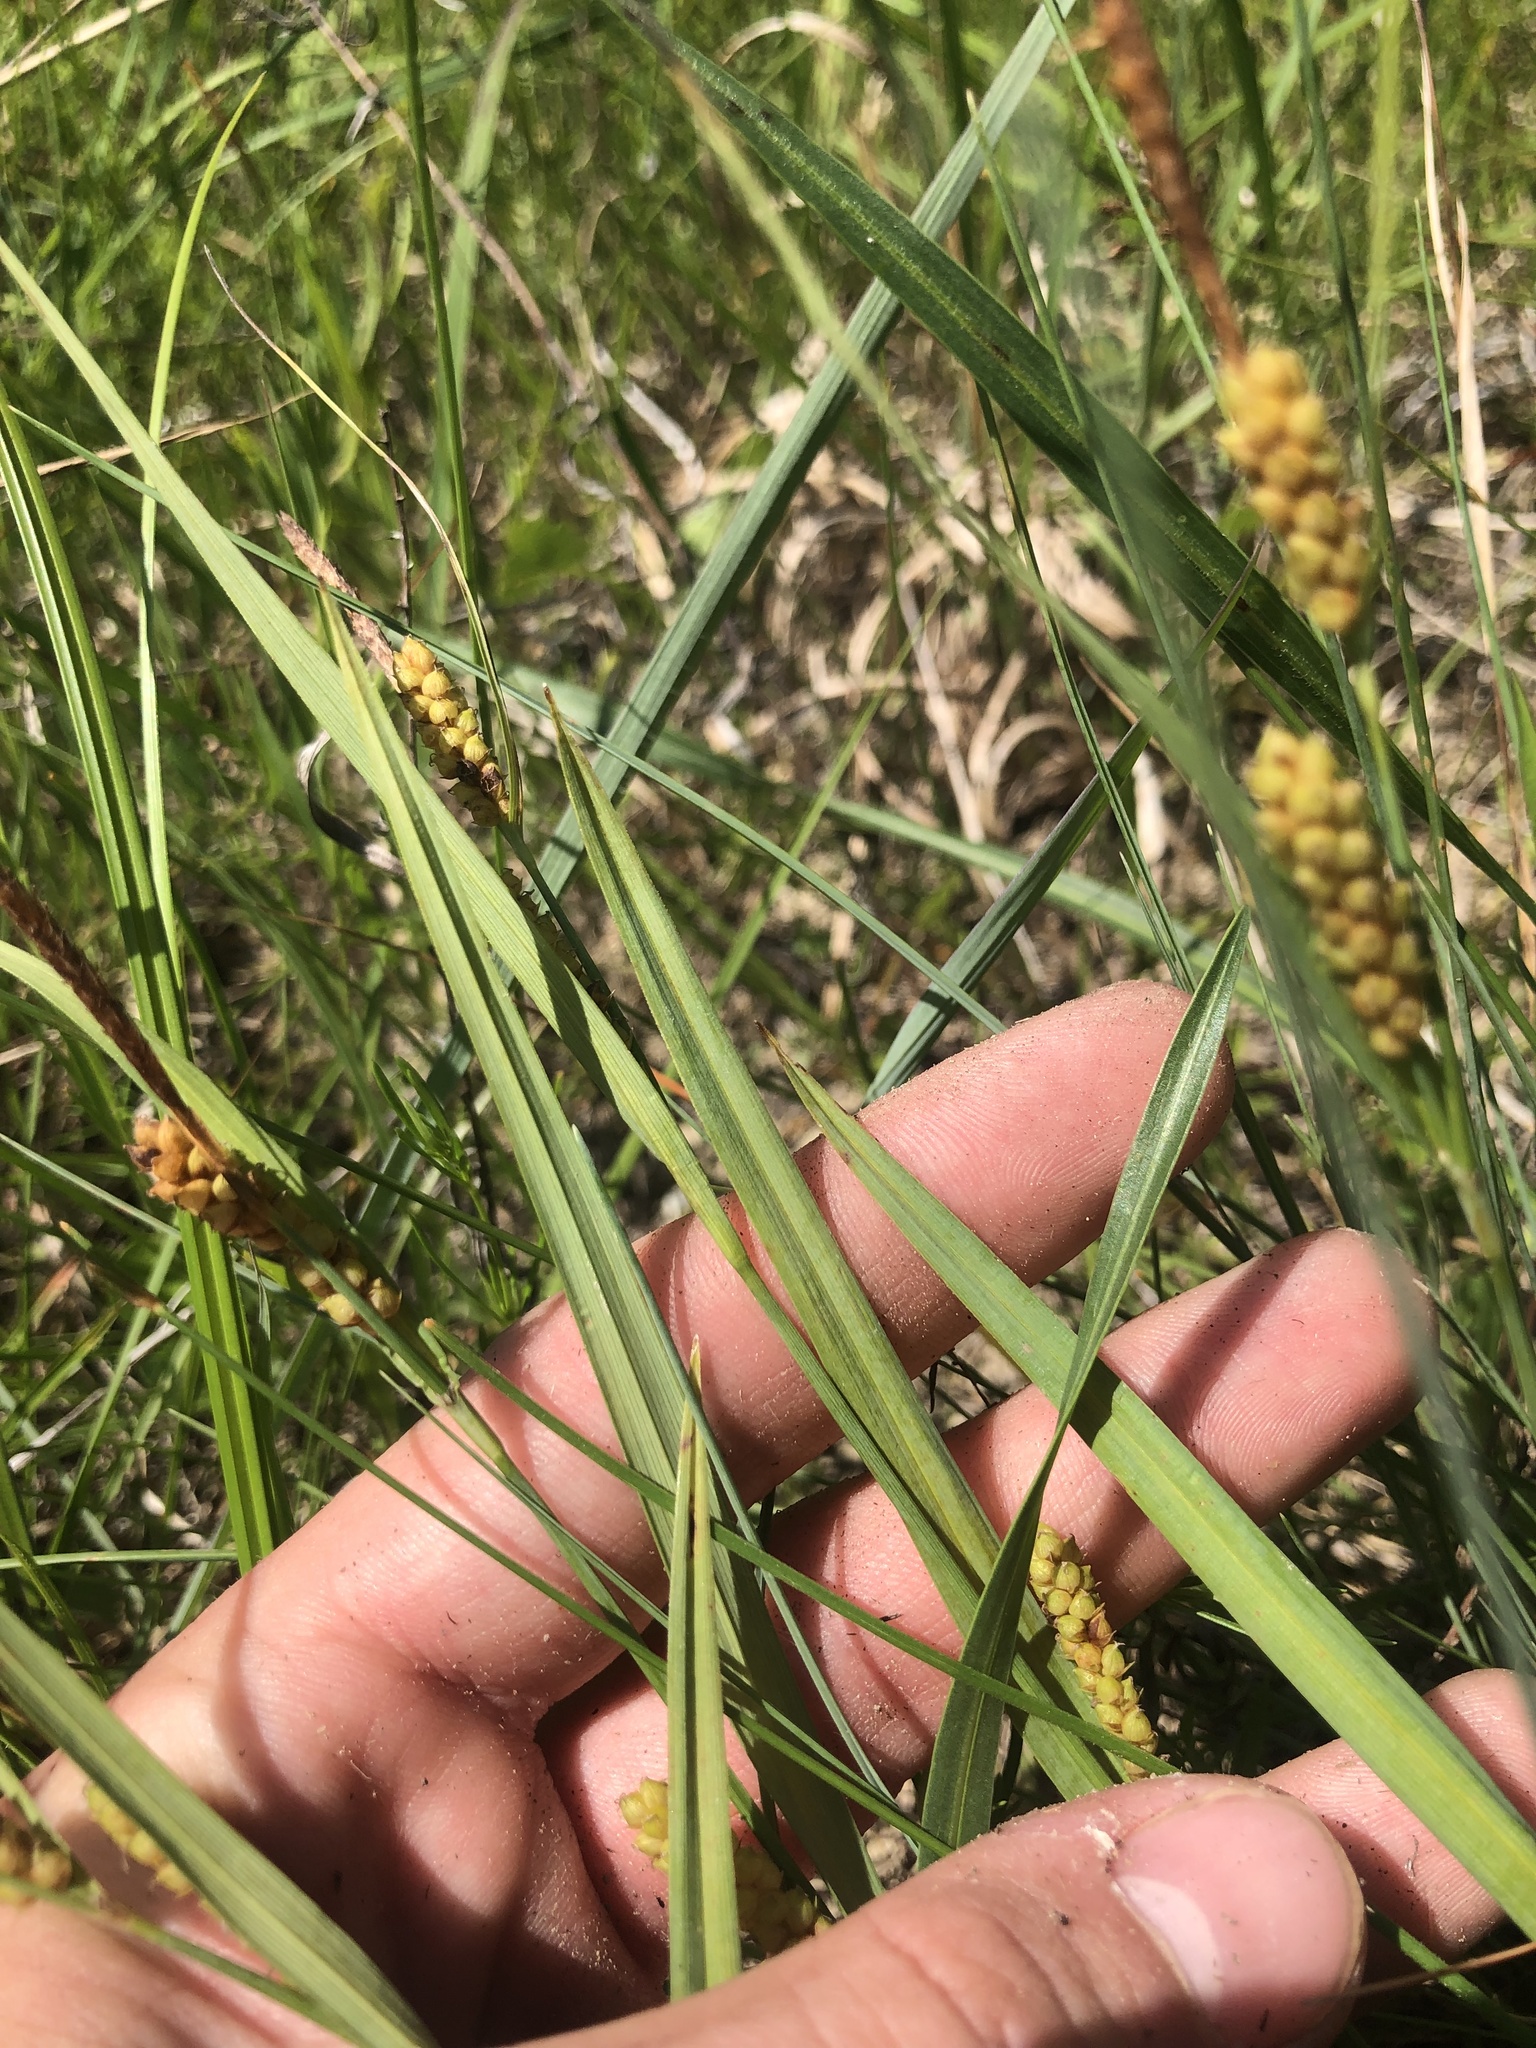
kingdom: Plantae
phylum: Tracheophyta
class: Liliopsida
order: Poales
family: Cyperaceae
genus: Carex
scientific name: Carex granularis
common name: Granular sedge
